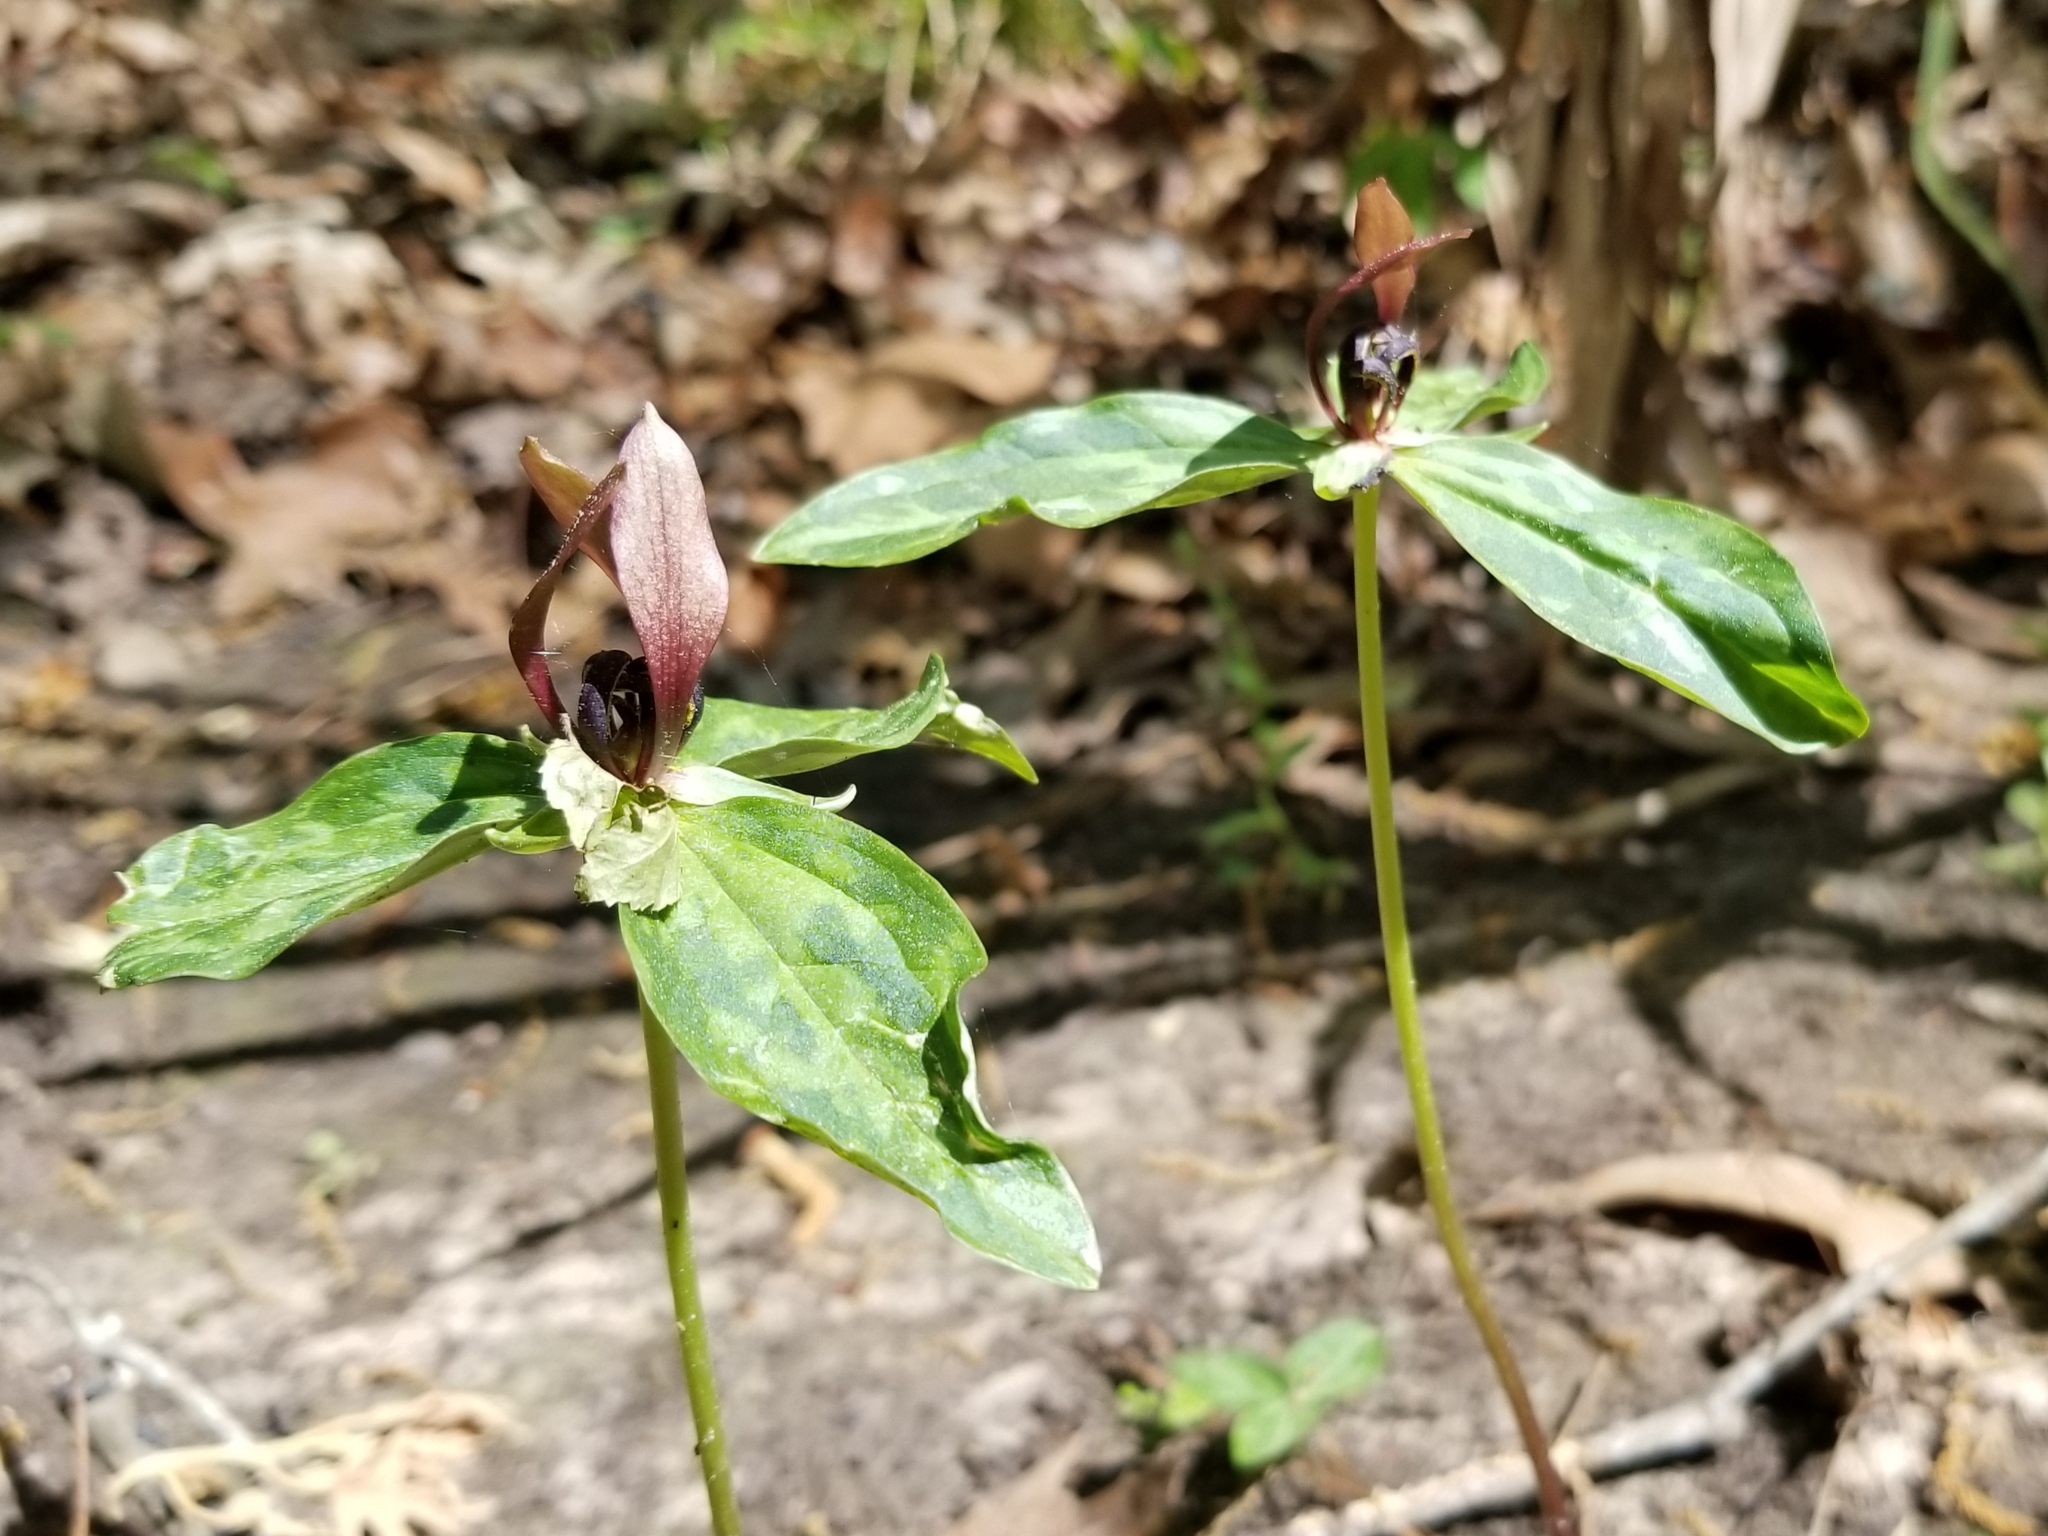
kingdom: Plantae
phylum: Tracheophyta
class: Liliopsida
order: Liliales
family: Melanthiaceae
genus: Trillium
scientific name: Trillium lancifolium
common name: Lance-leaved trillium
